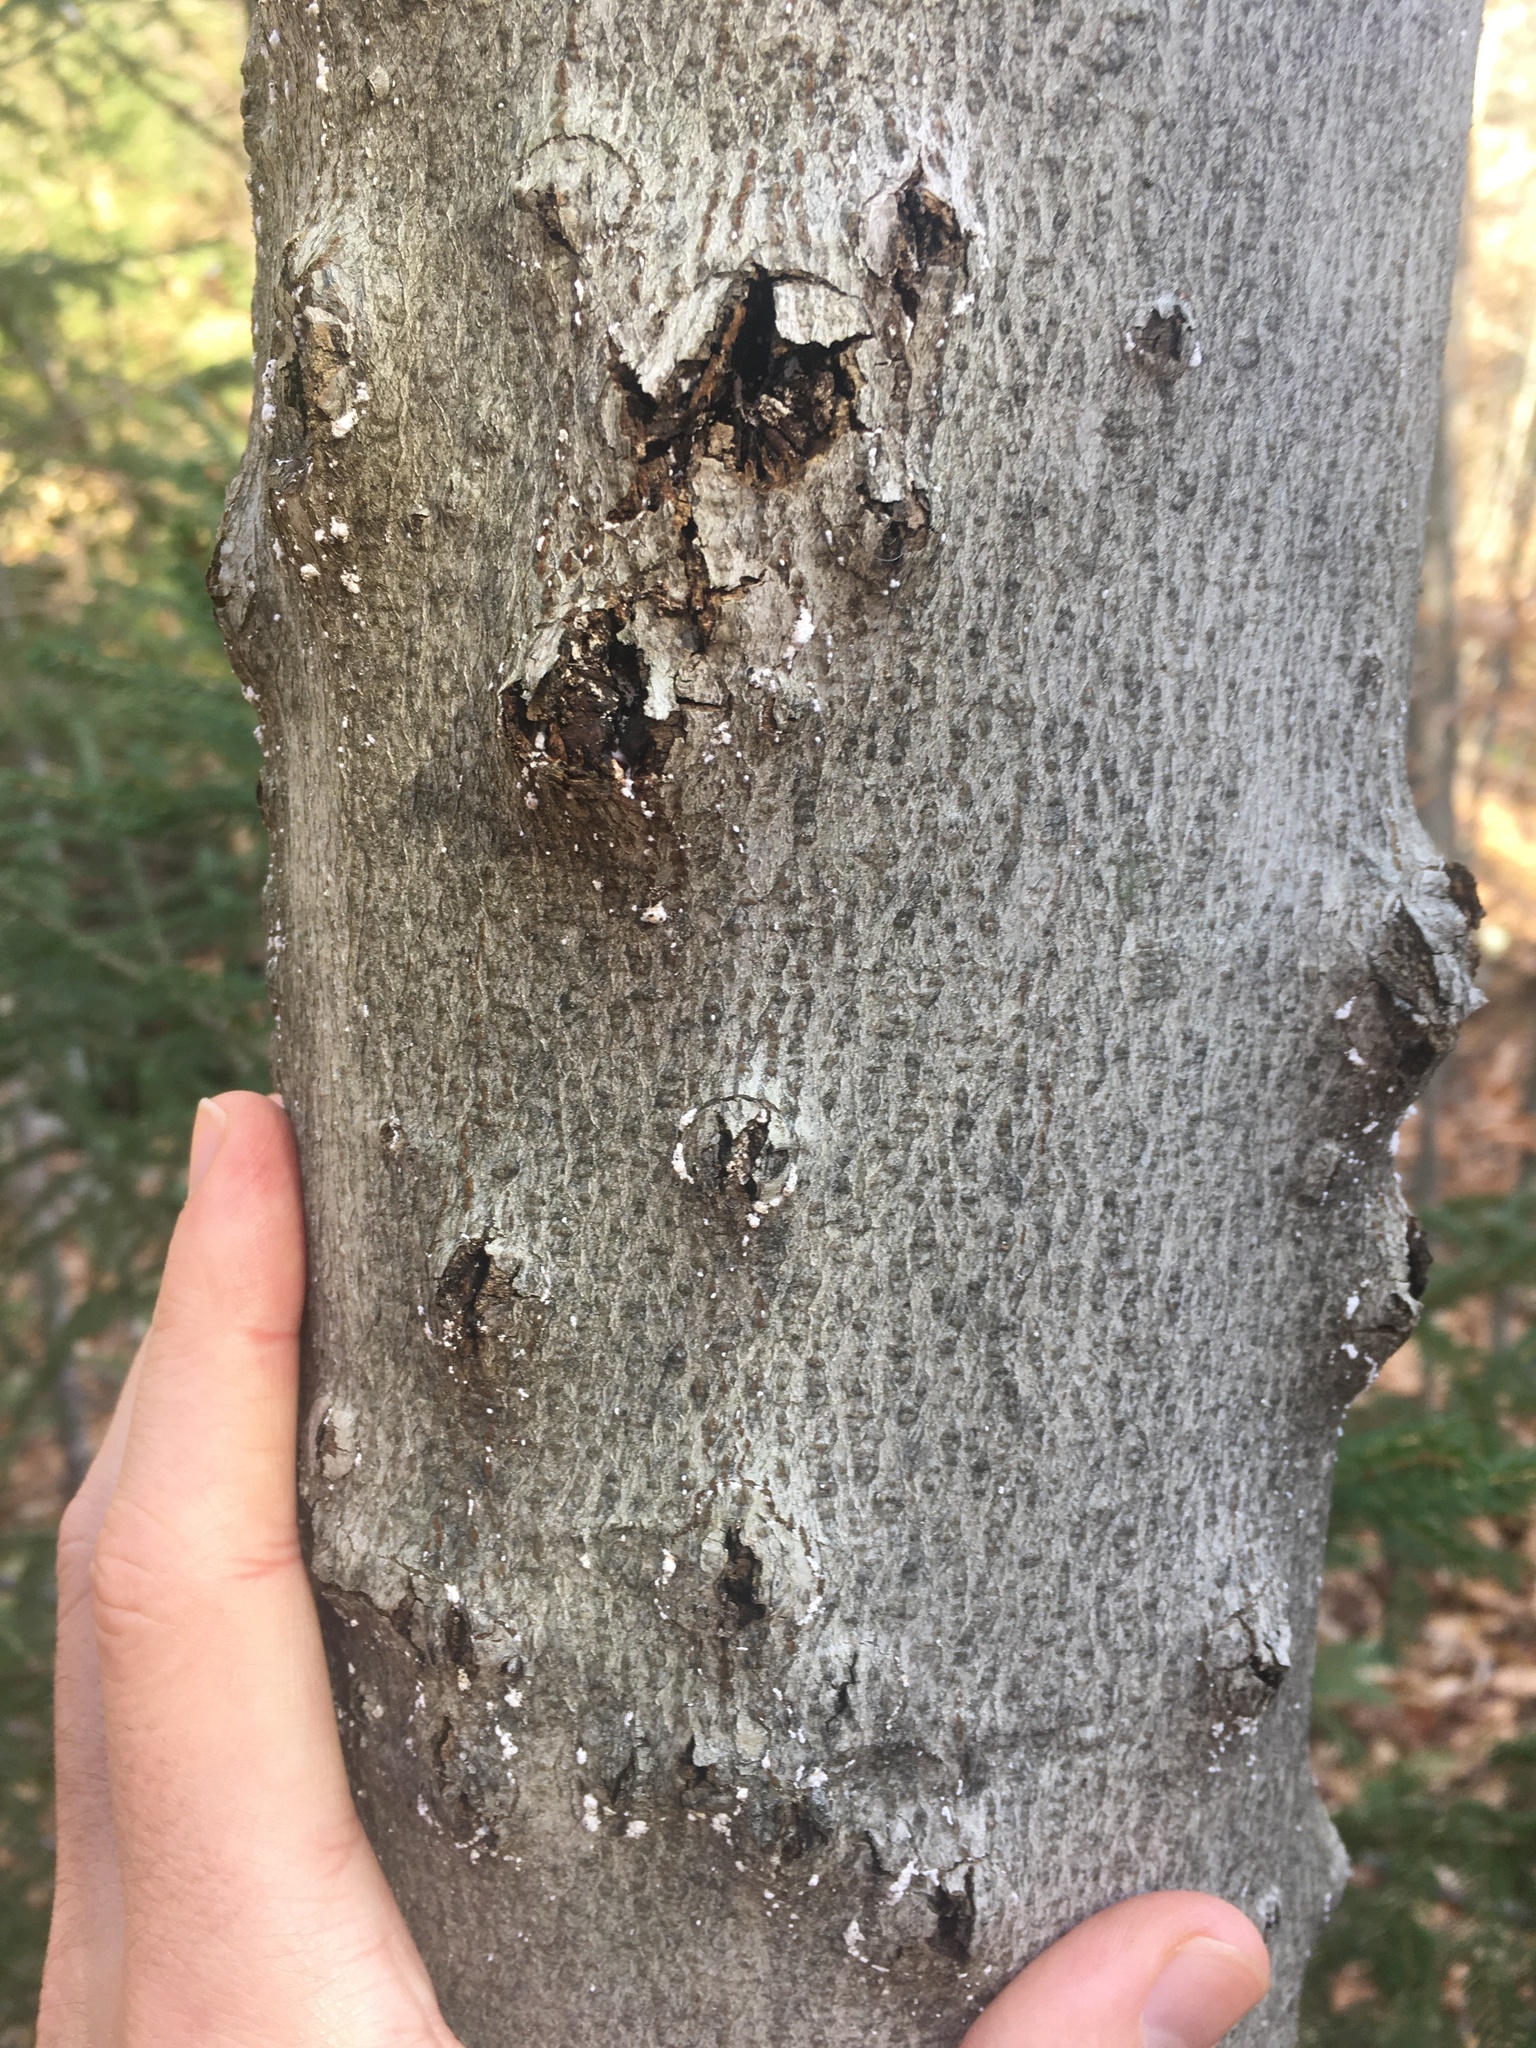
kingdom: Animalia
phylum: Arthropoda
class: Insecta
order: Hemiptera
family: Eriococcidae
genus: Cryptococcus
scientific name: Cryptococcus fagisuga
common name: Beech scale
